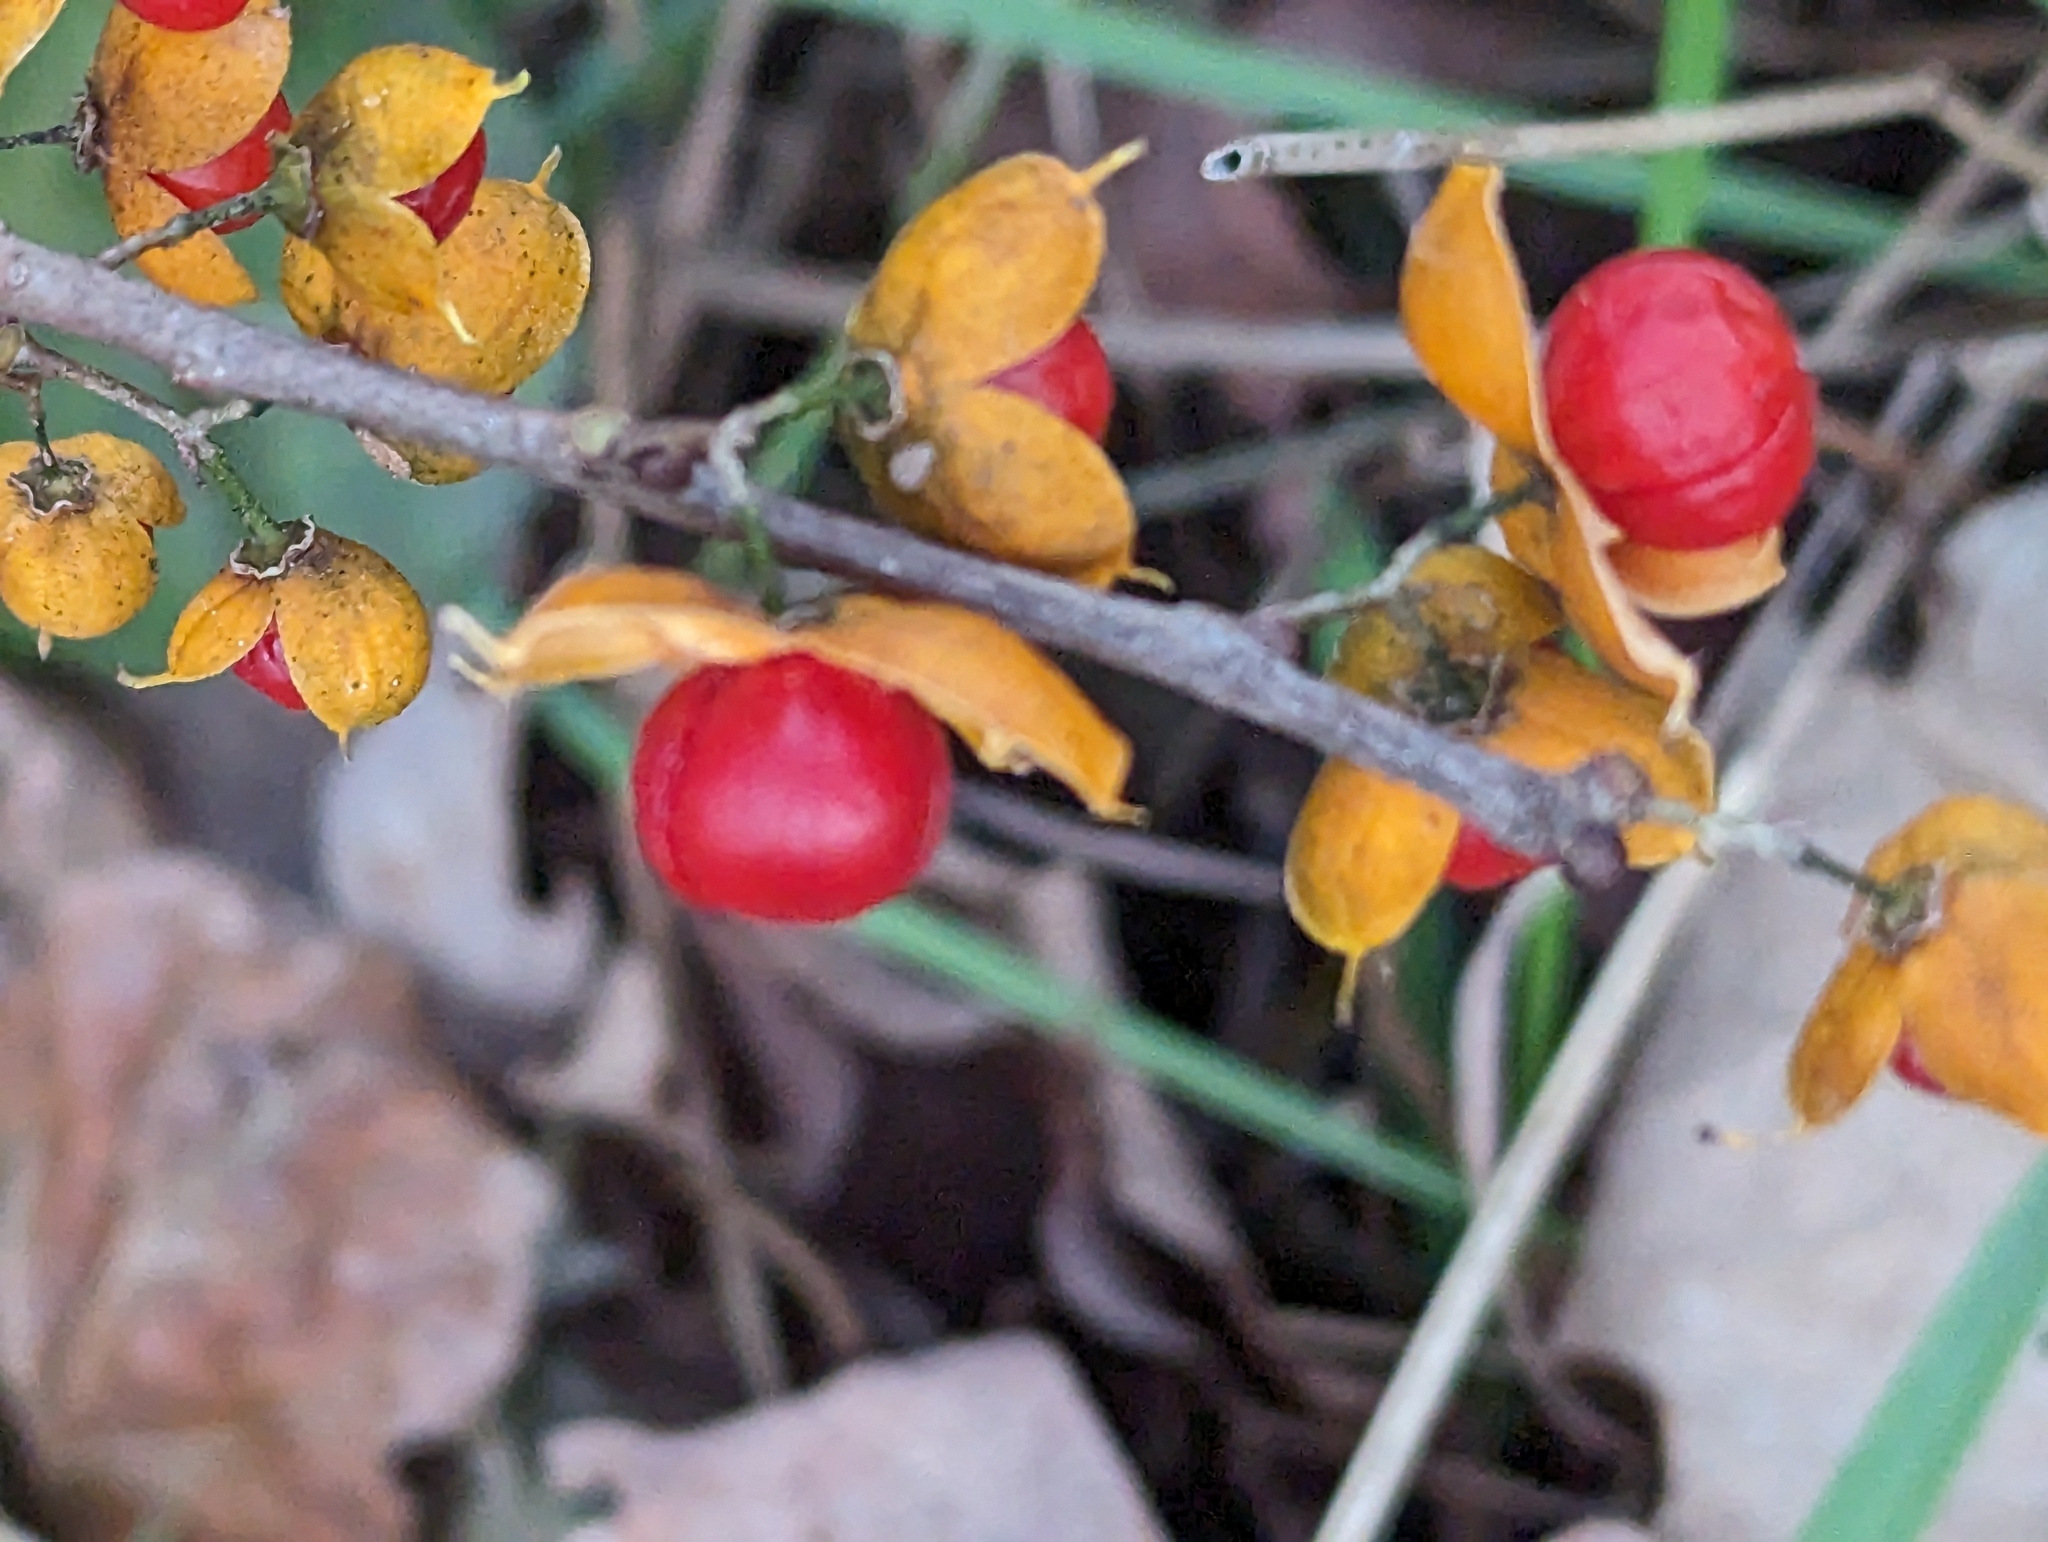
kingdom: Plantae
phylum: Tracheophyta
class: Magnoliopsida
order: Celastrales
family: Celastraceae
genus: Celastrus
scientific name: Celastrus orbiculatus
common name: Oriental bittersweet
